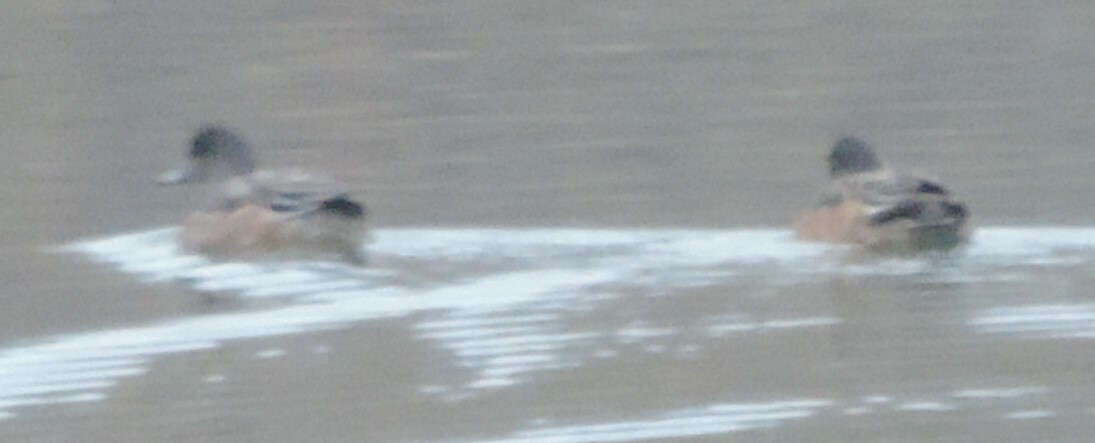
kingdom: Animalia
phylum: Chordata
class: Aves
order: Anseriformes
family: Anatidae
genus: Mareca
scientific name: Mareca americana
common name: American wigeon
